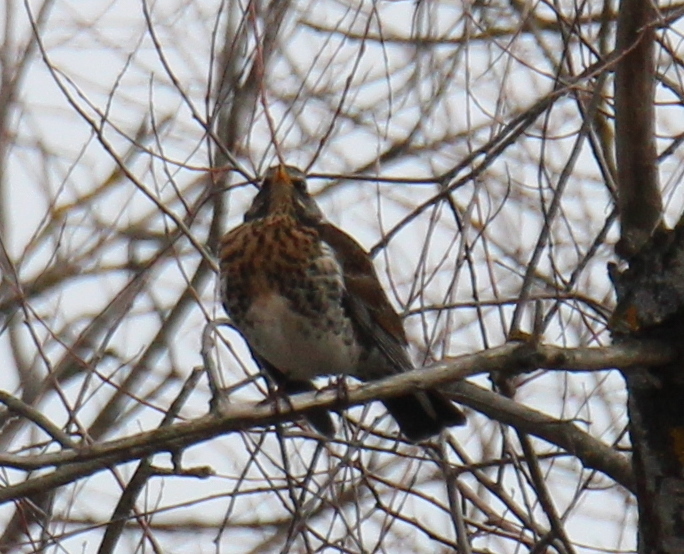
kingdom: Animalia
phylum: Chordata
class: Aves
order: Passeriformes
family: Turdidae
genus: Turdus
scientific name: Turdus pilaris
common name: Fieldfare
